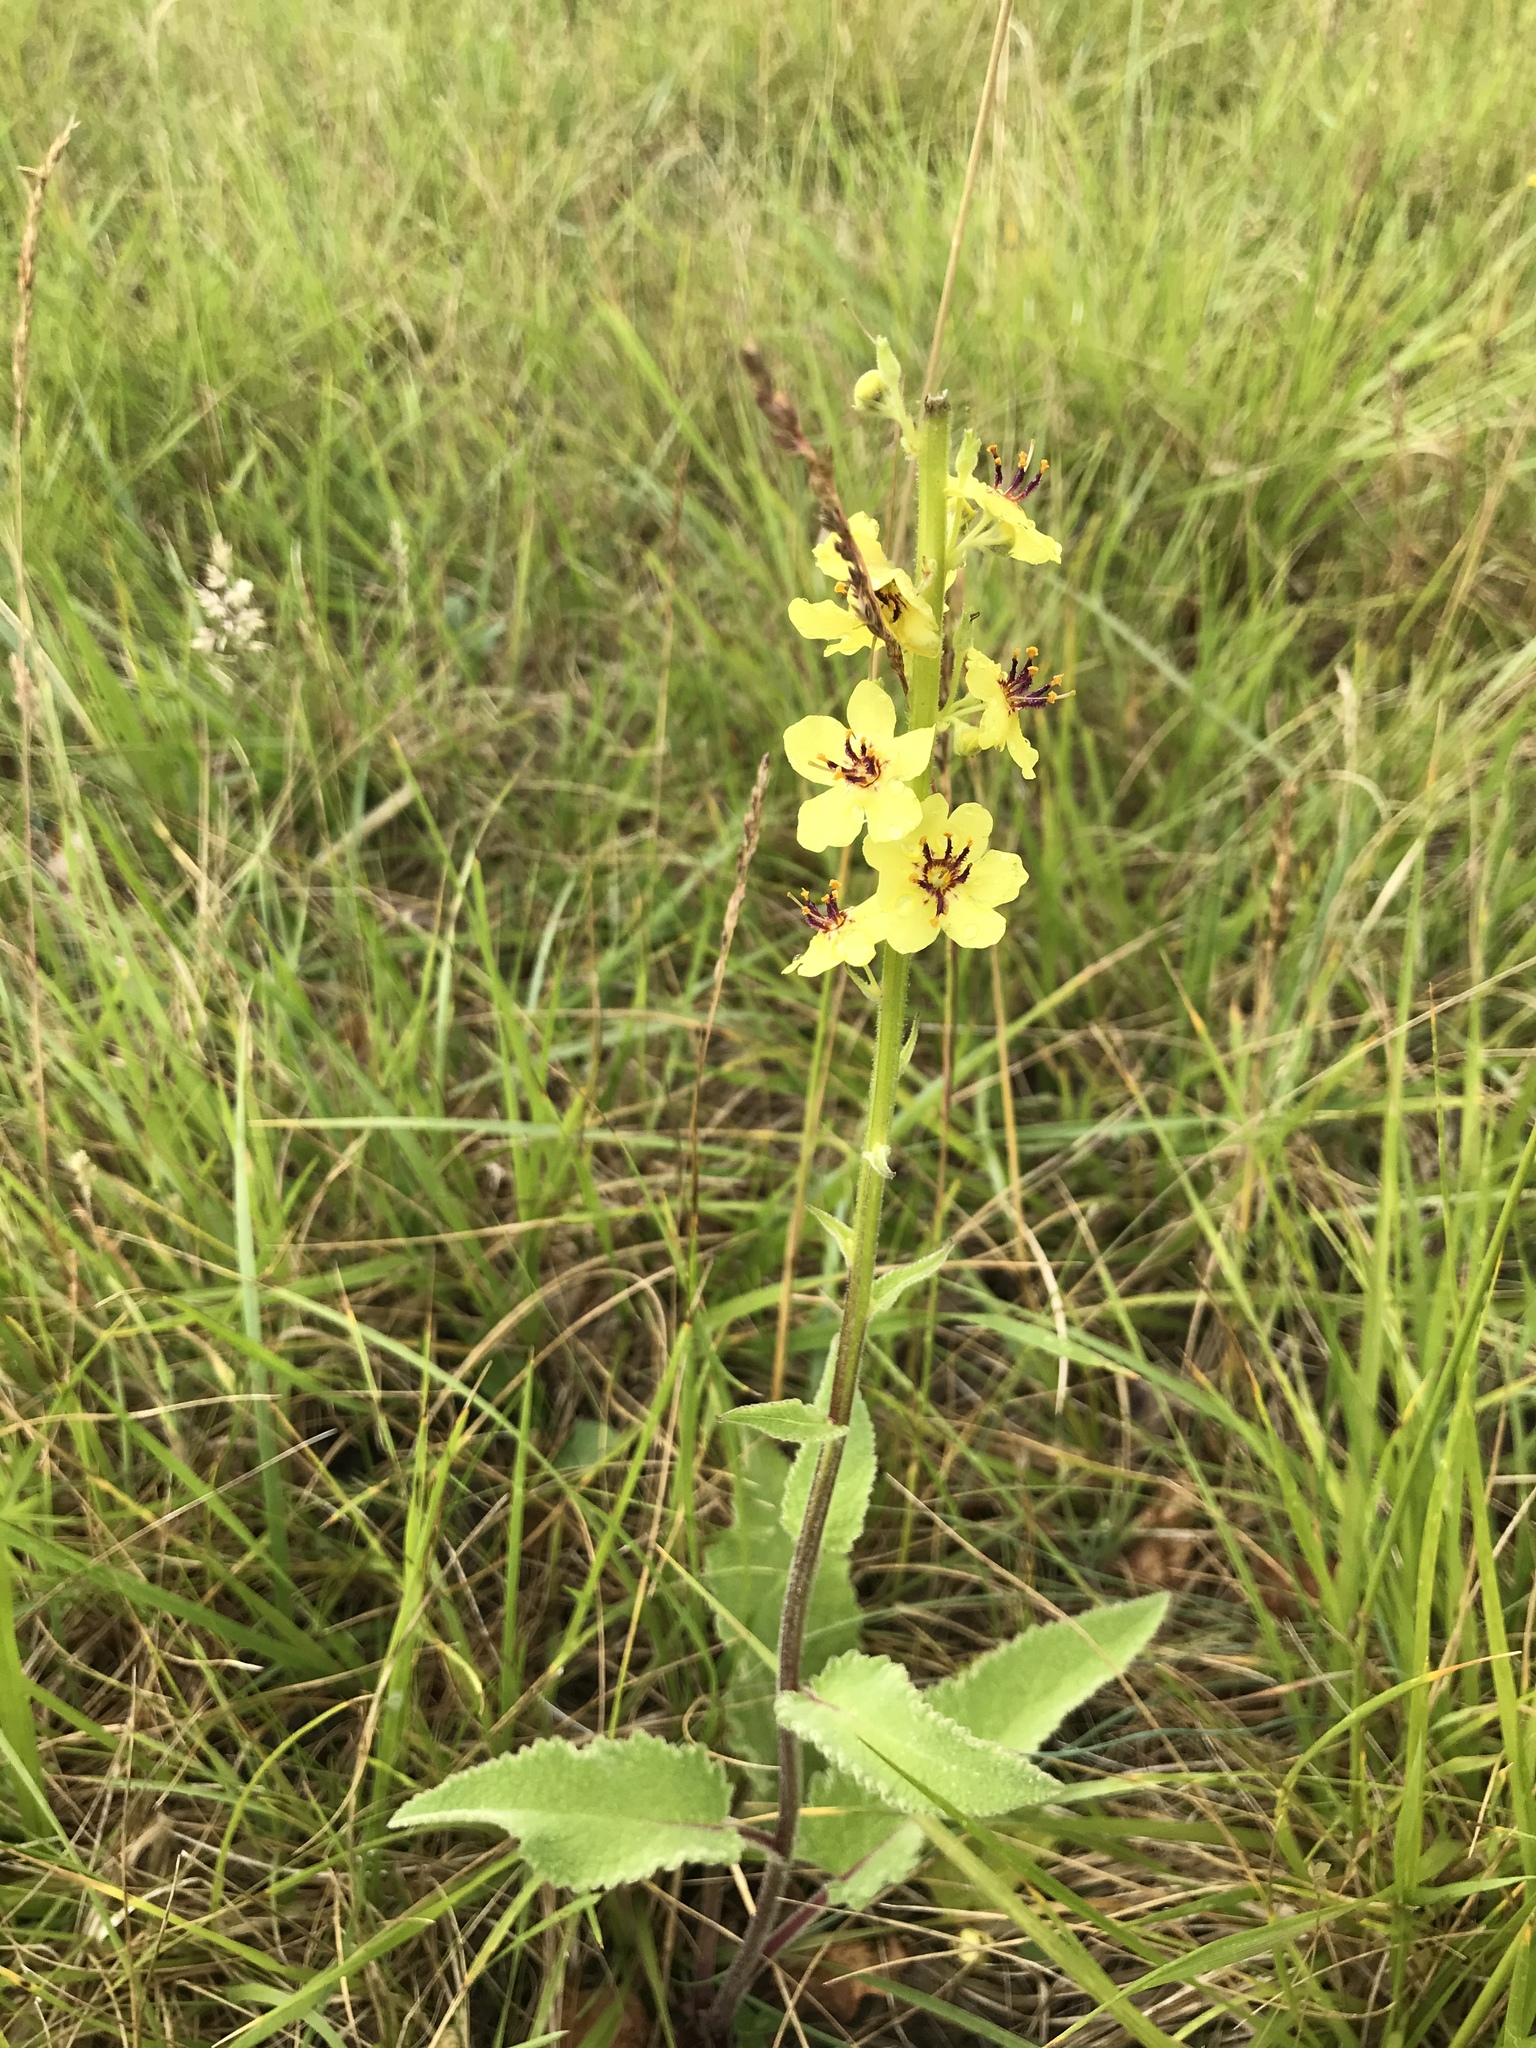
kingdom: Plantae
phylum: Tracheophyta
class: Magnoliopsida
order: Lamiales
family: Scrophulariaceae
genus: Verbascum
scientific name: Verbascum nigrum
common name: Dark mullein
